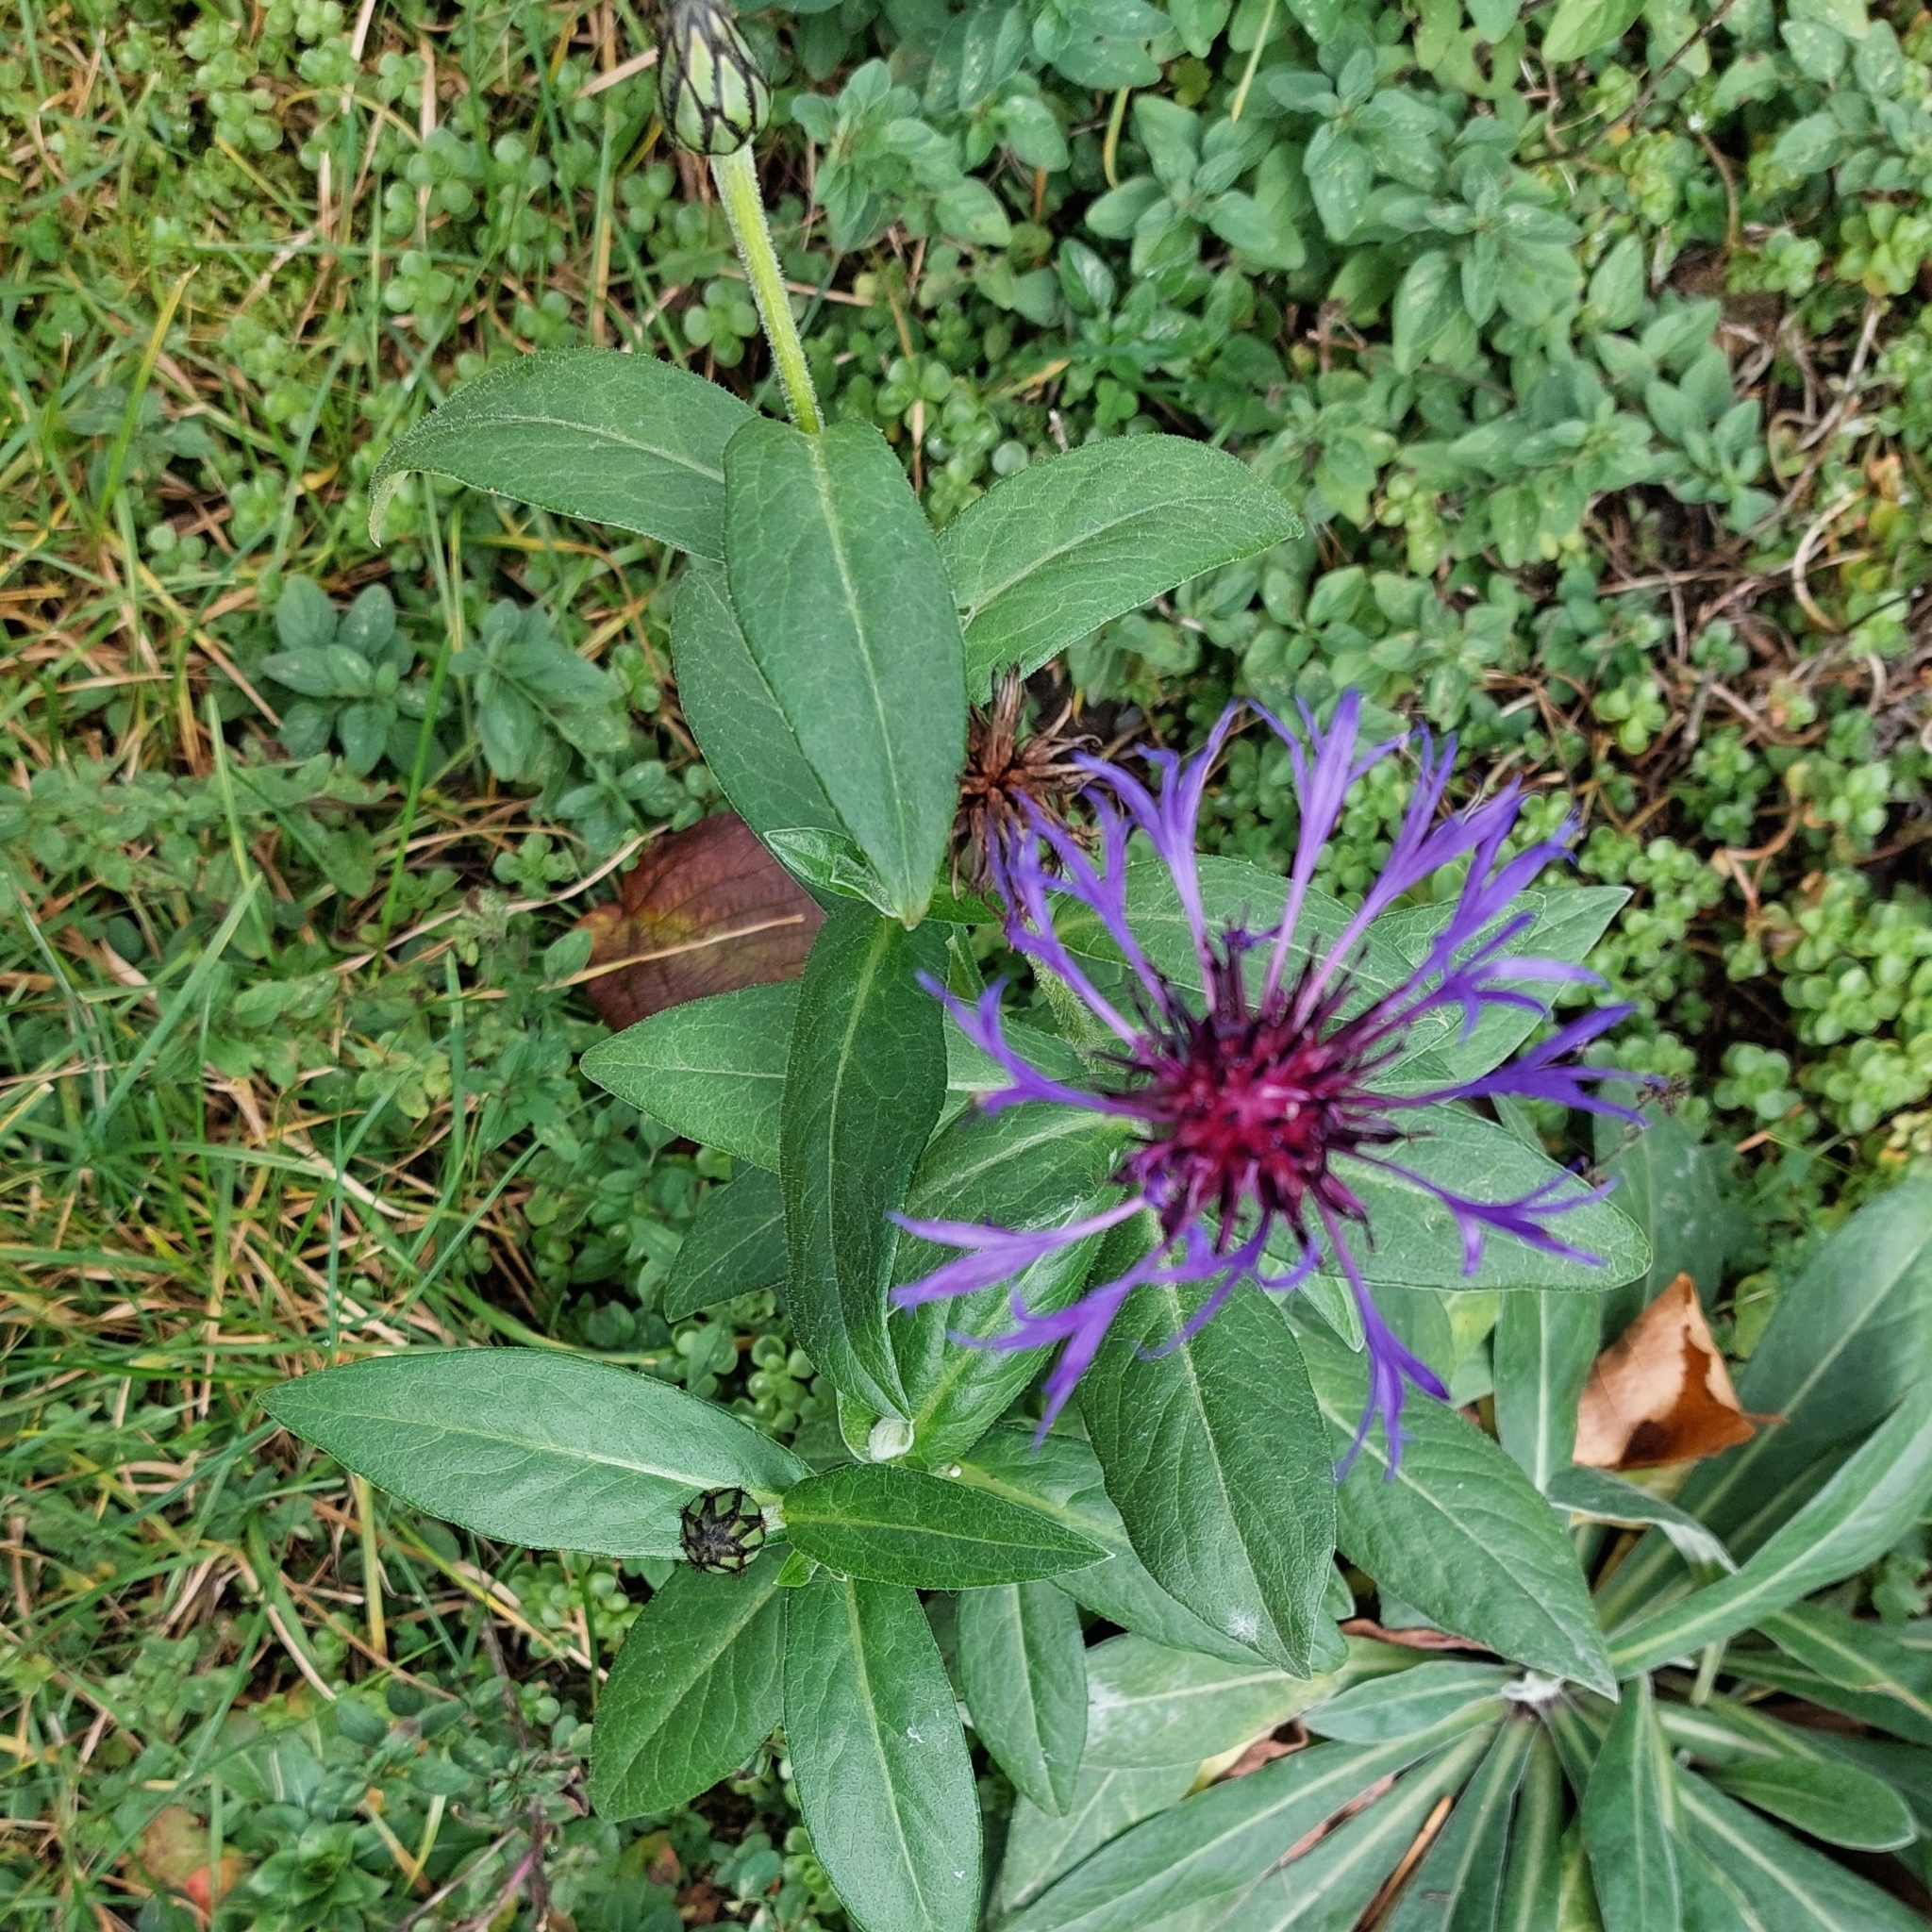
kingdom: Plantae
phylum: Tracheophyta
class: Magnoliopsida
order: Asterales
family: Asteraceae
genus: Centaurea
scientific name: Centaurea montana
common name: Perennial cornflower
